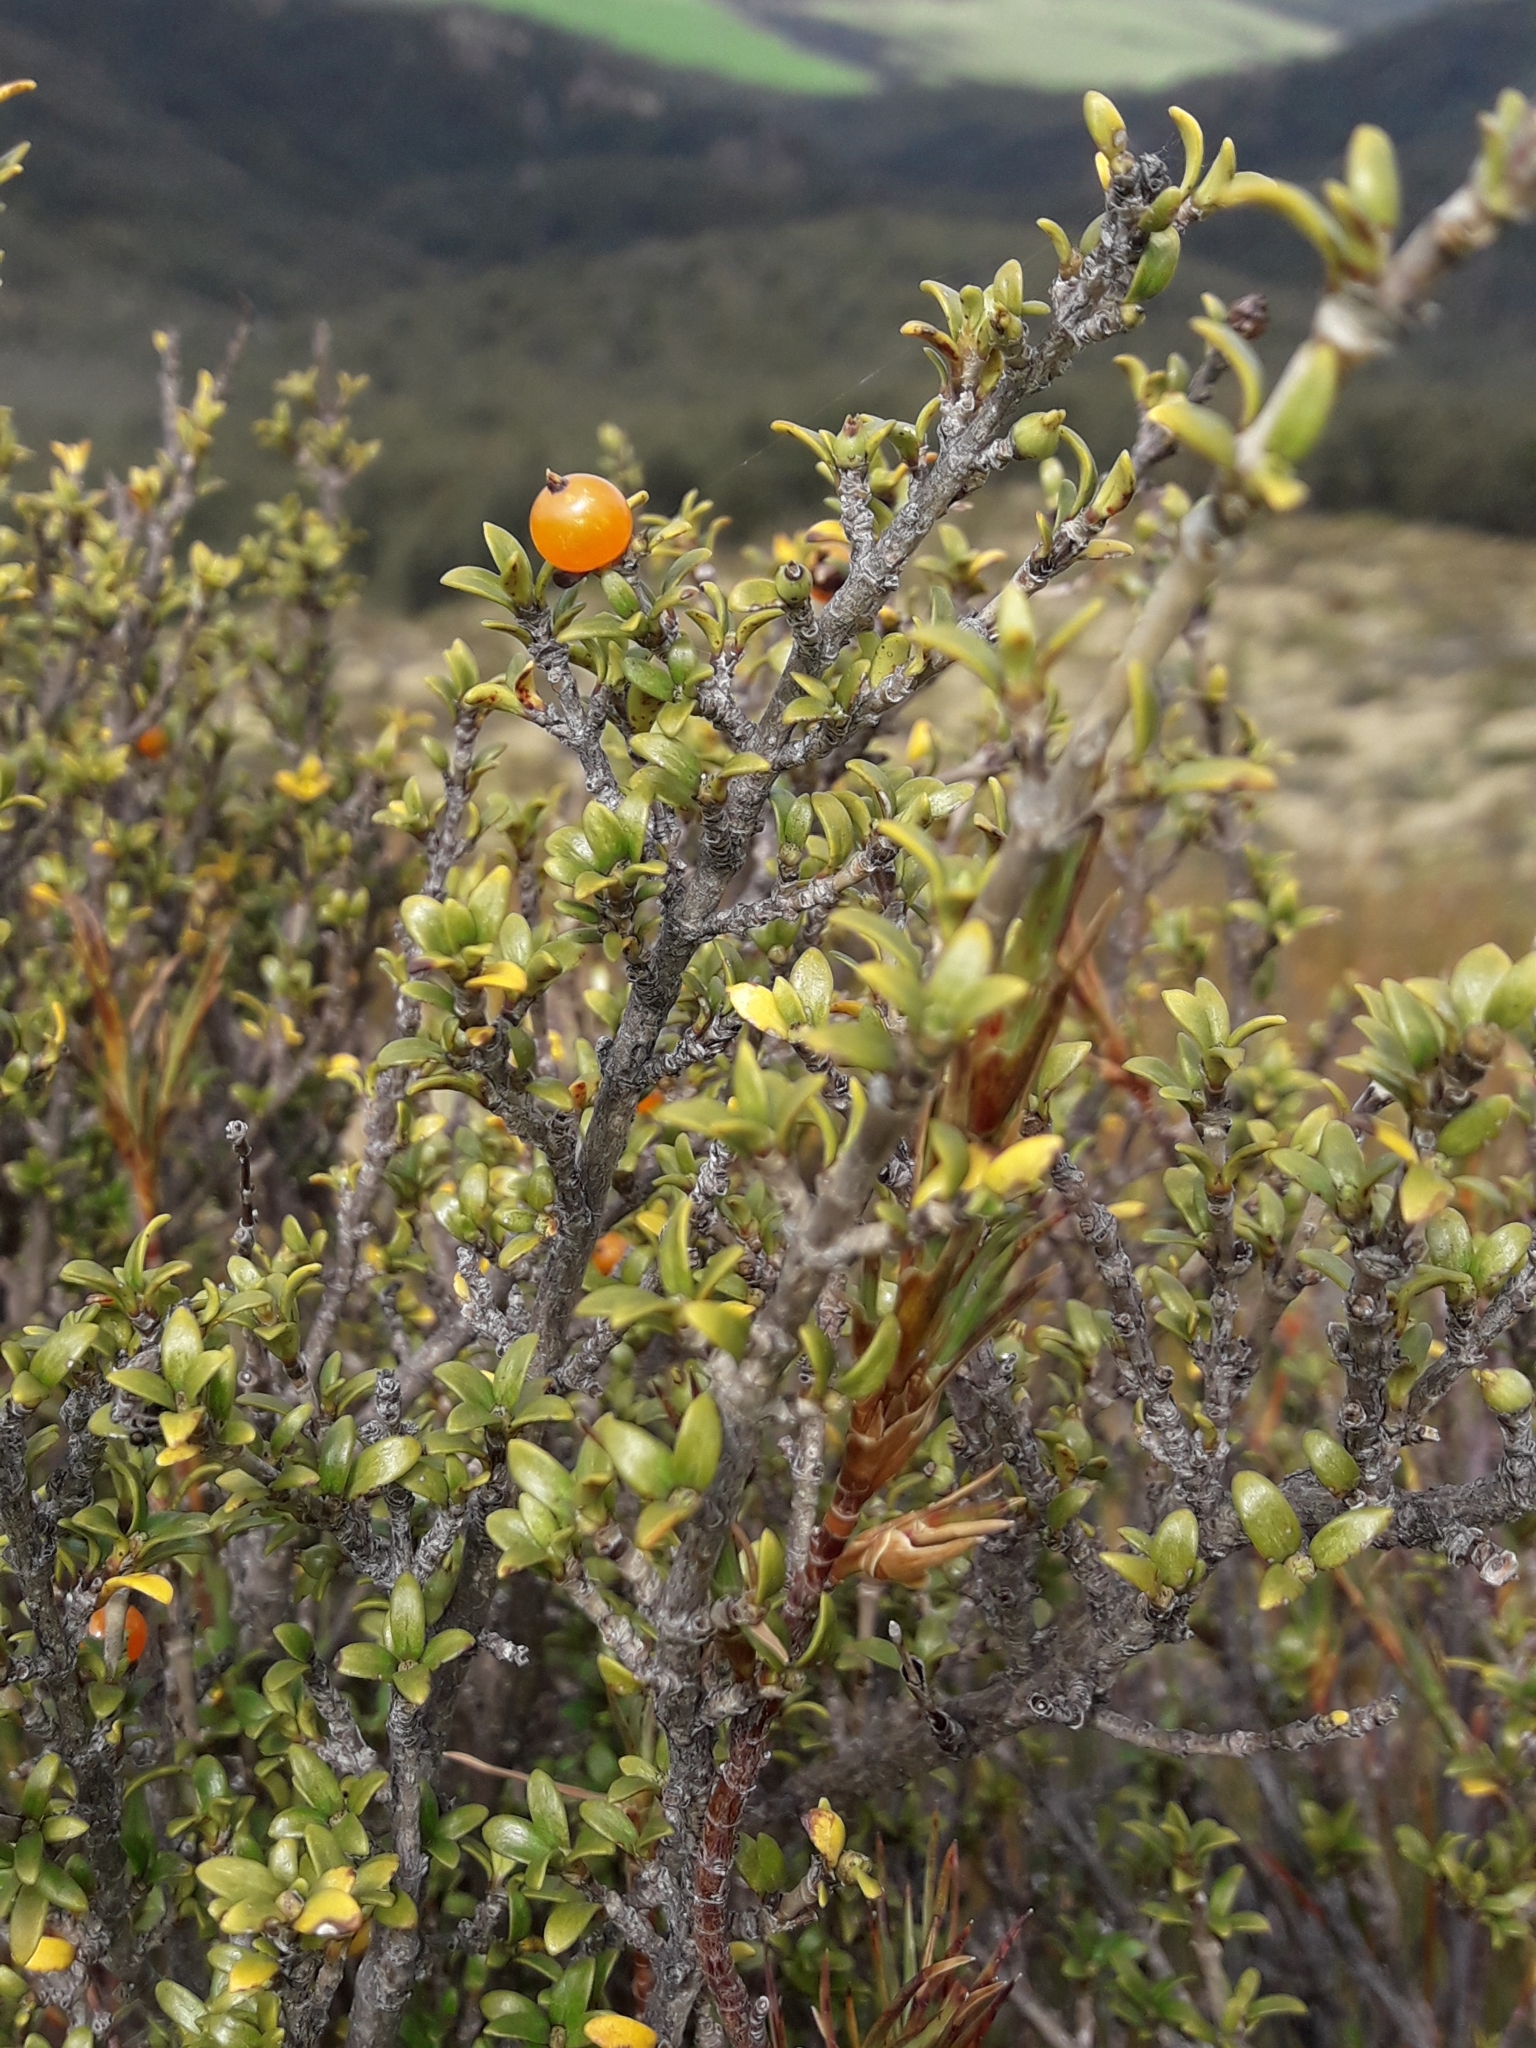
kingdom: Plantae
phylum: Tracheophyta
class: Magnoliopsida
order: Gentianales
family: Rubiaceae
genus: Coprosma
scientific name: Coprosma pseudocuneata
